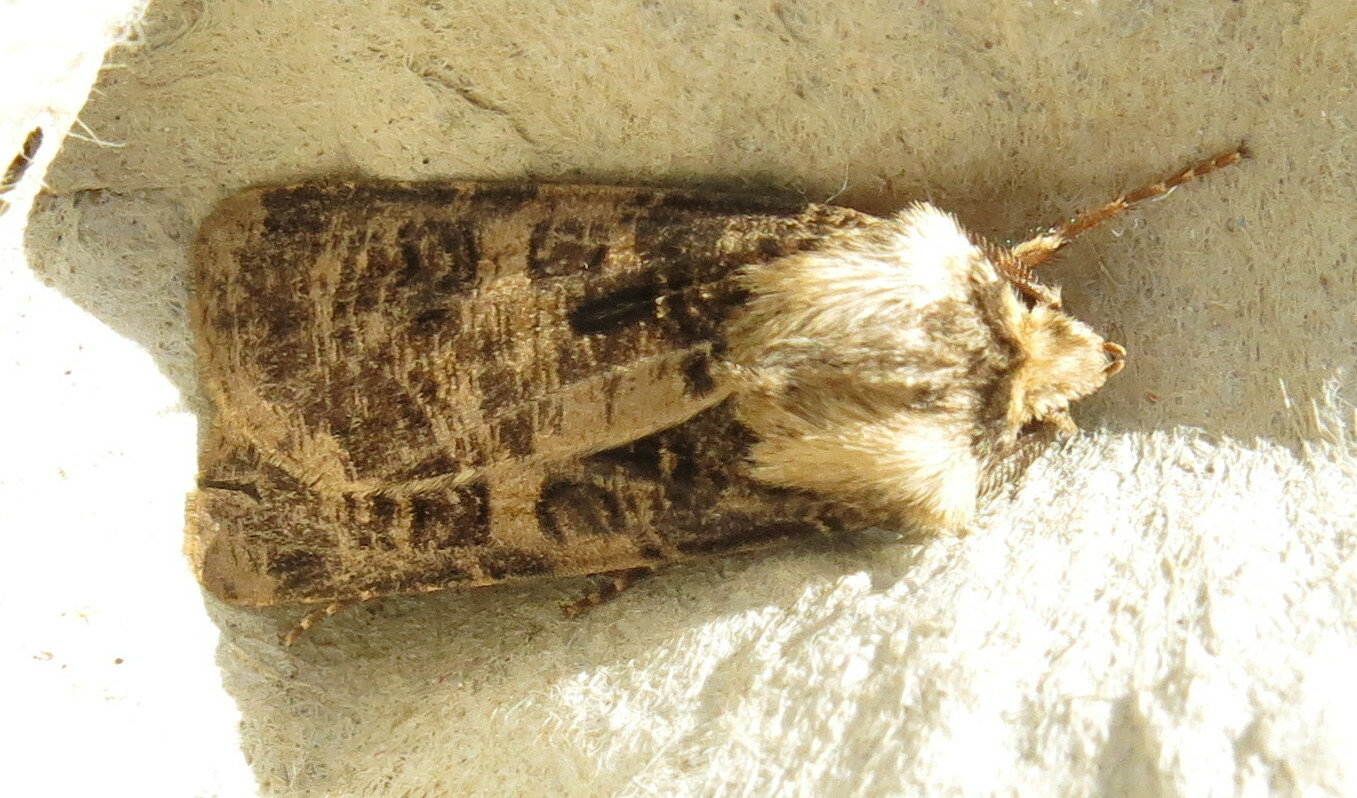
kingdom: Animalia
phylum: Arthropoda
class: Insecta
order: Lepidoptera
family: Noctuidae
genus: Agrotis
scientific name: Agrotis clavis
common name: Heart and club
